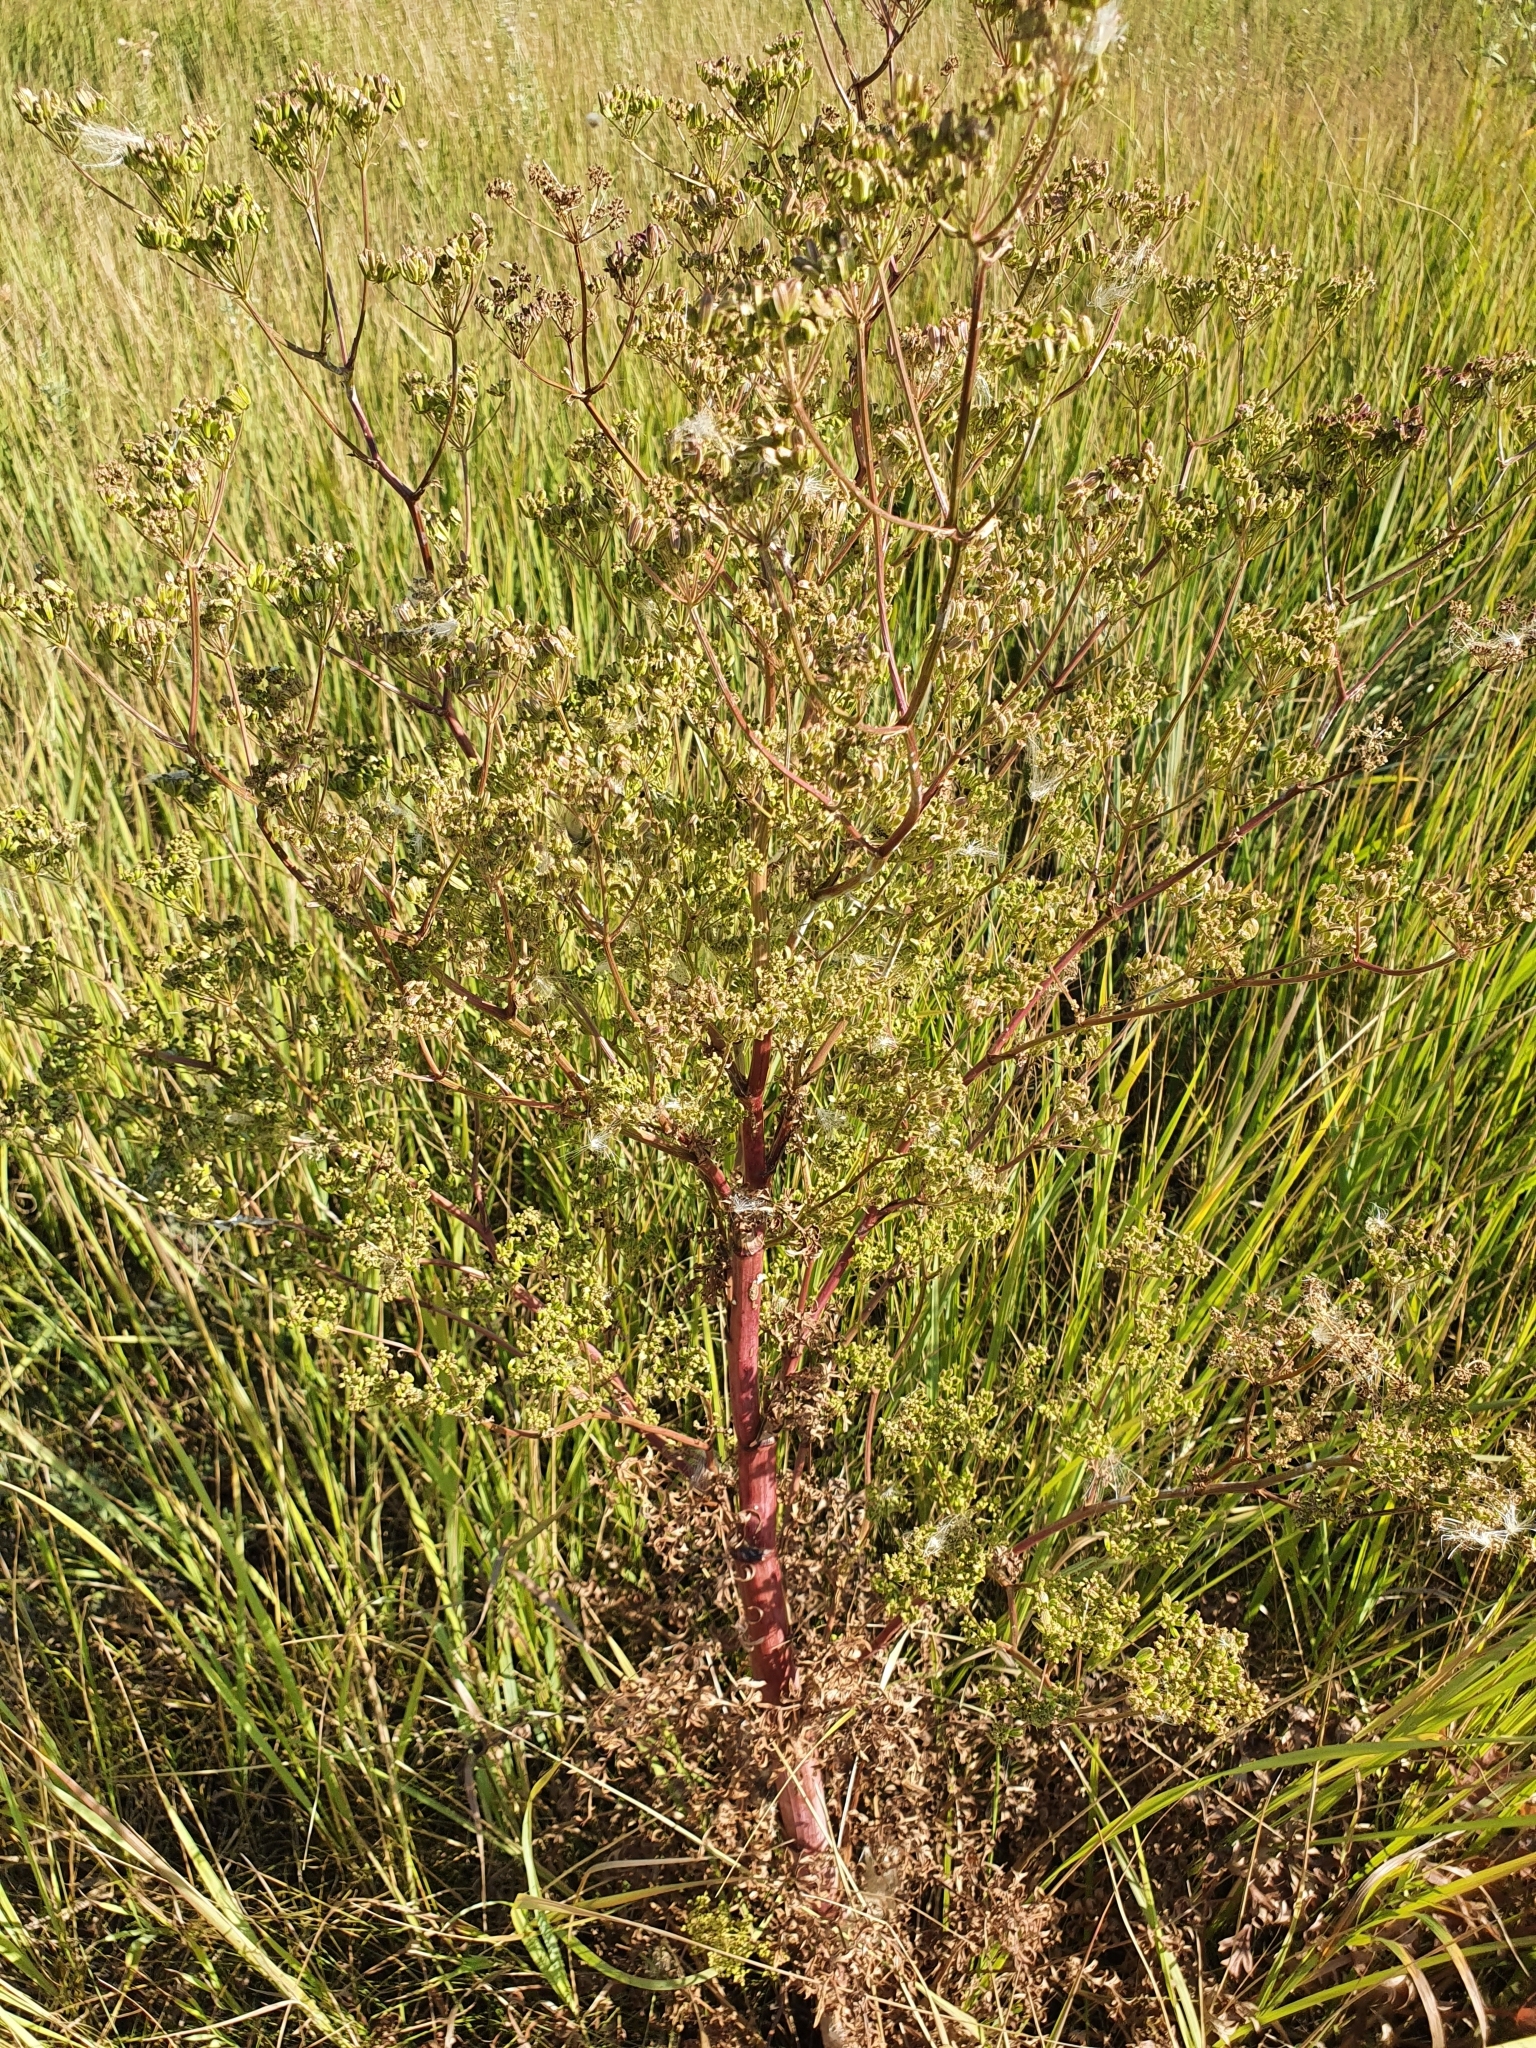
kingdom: Plantae
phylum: Tracheophyta
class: Magnoliopsida
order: Apiales
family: Apiaceae
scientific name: Apiaceae
